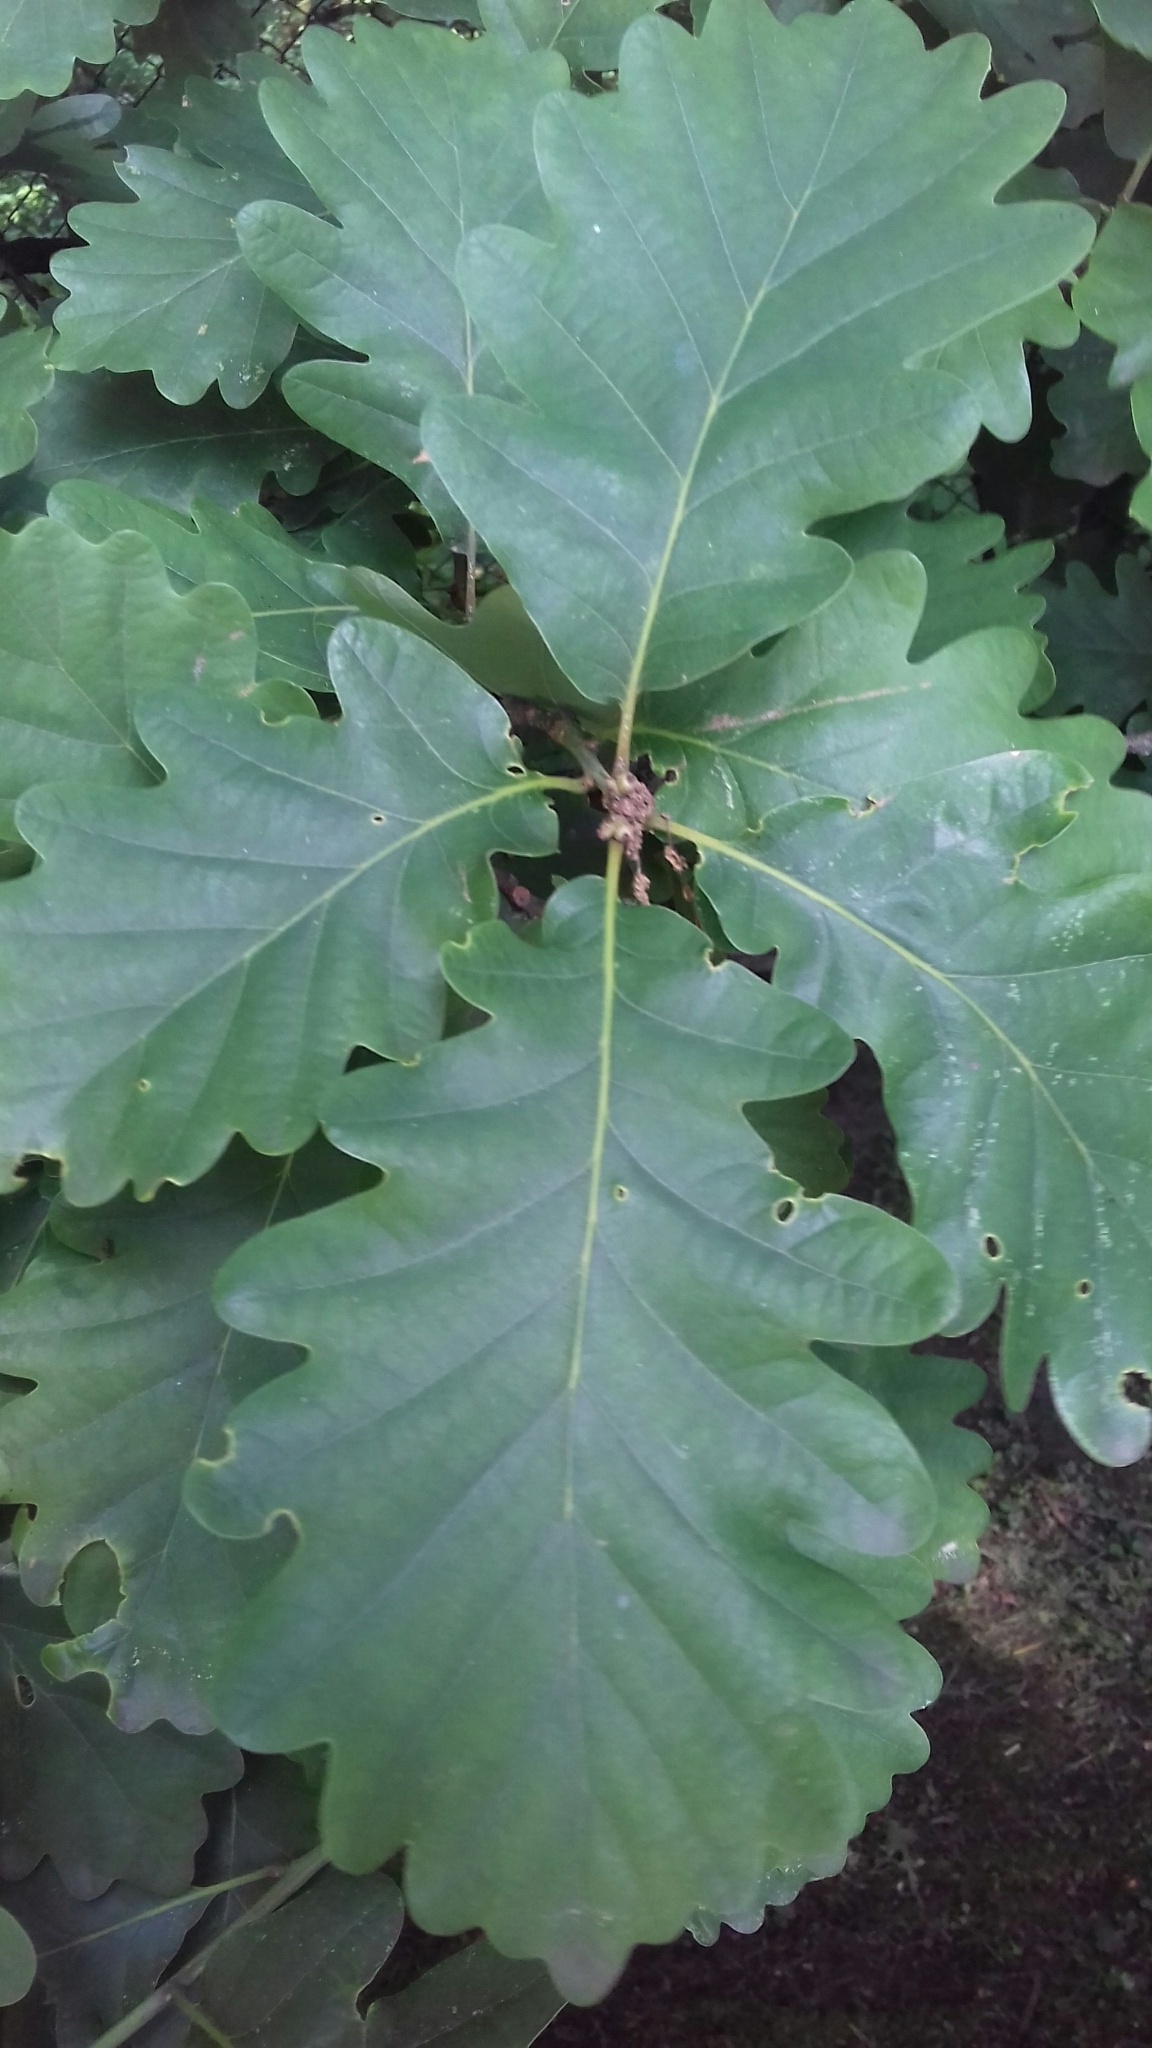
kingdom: Plantae
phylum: Tracheophyta
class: Magnoliopsida
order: Fagales
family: Fagaceae
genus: Quercus
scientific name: Quercus petraea
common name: Sessile oak
